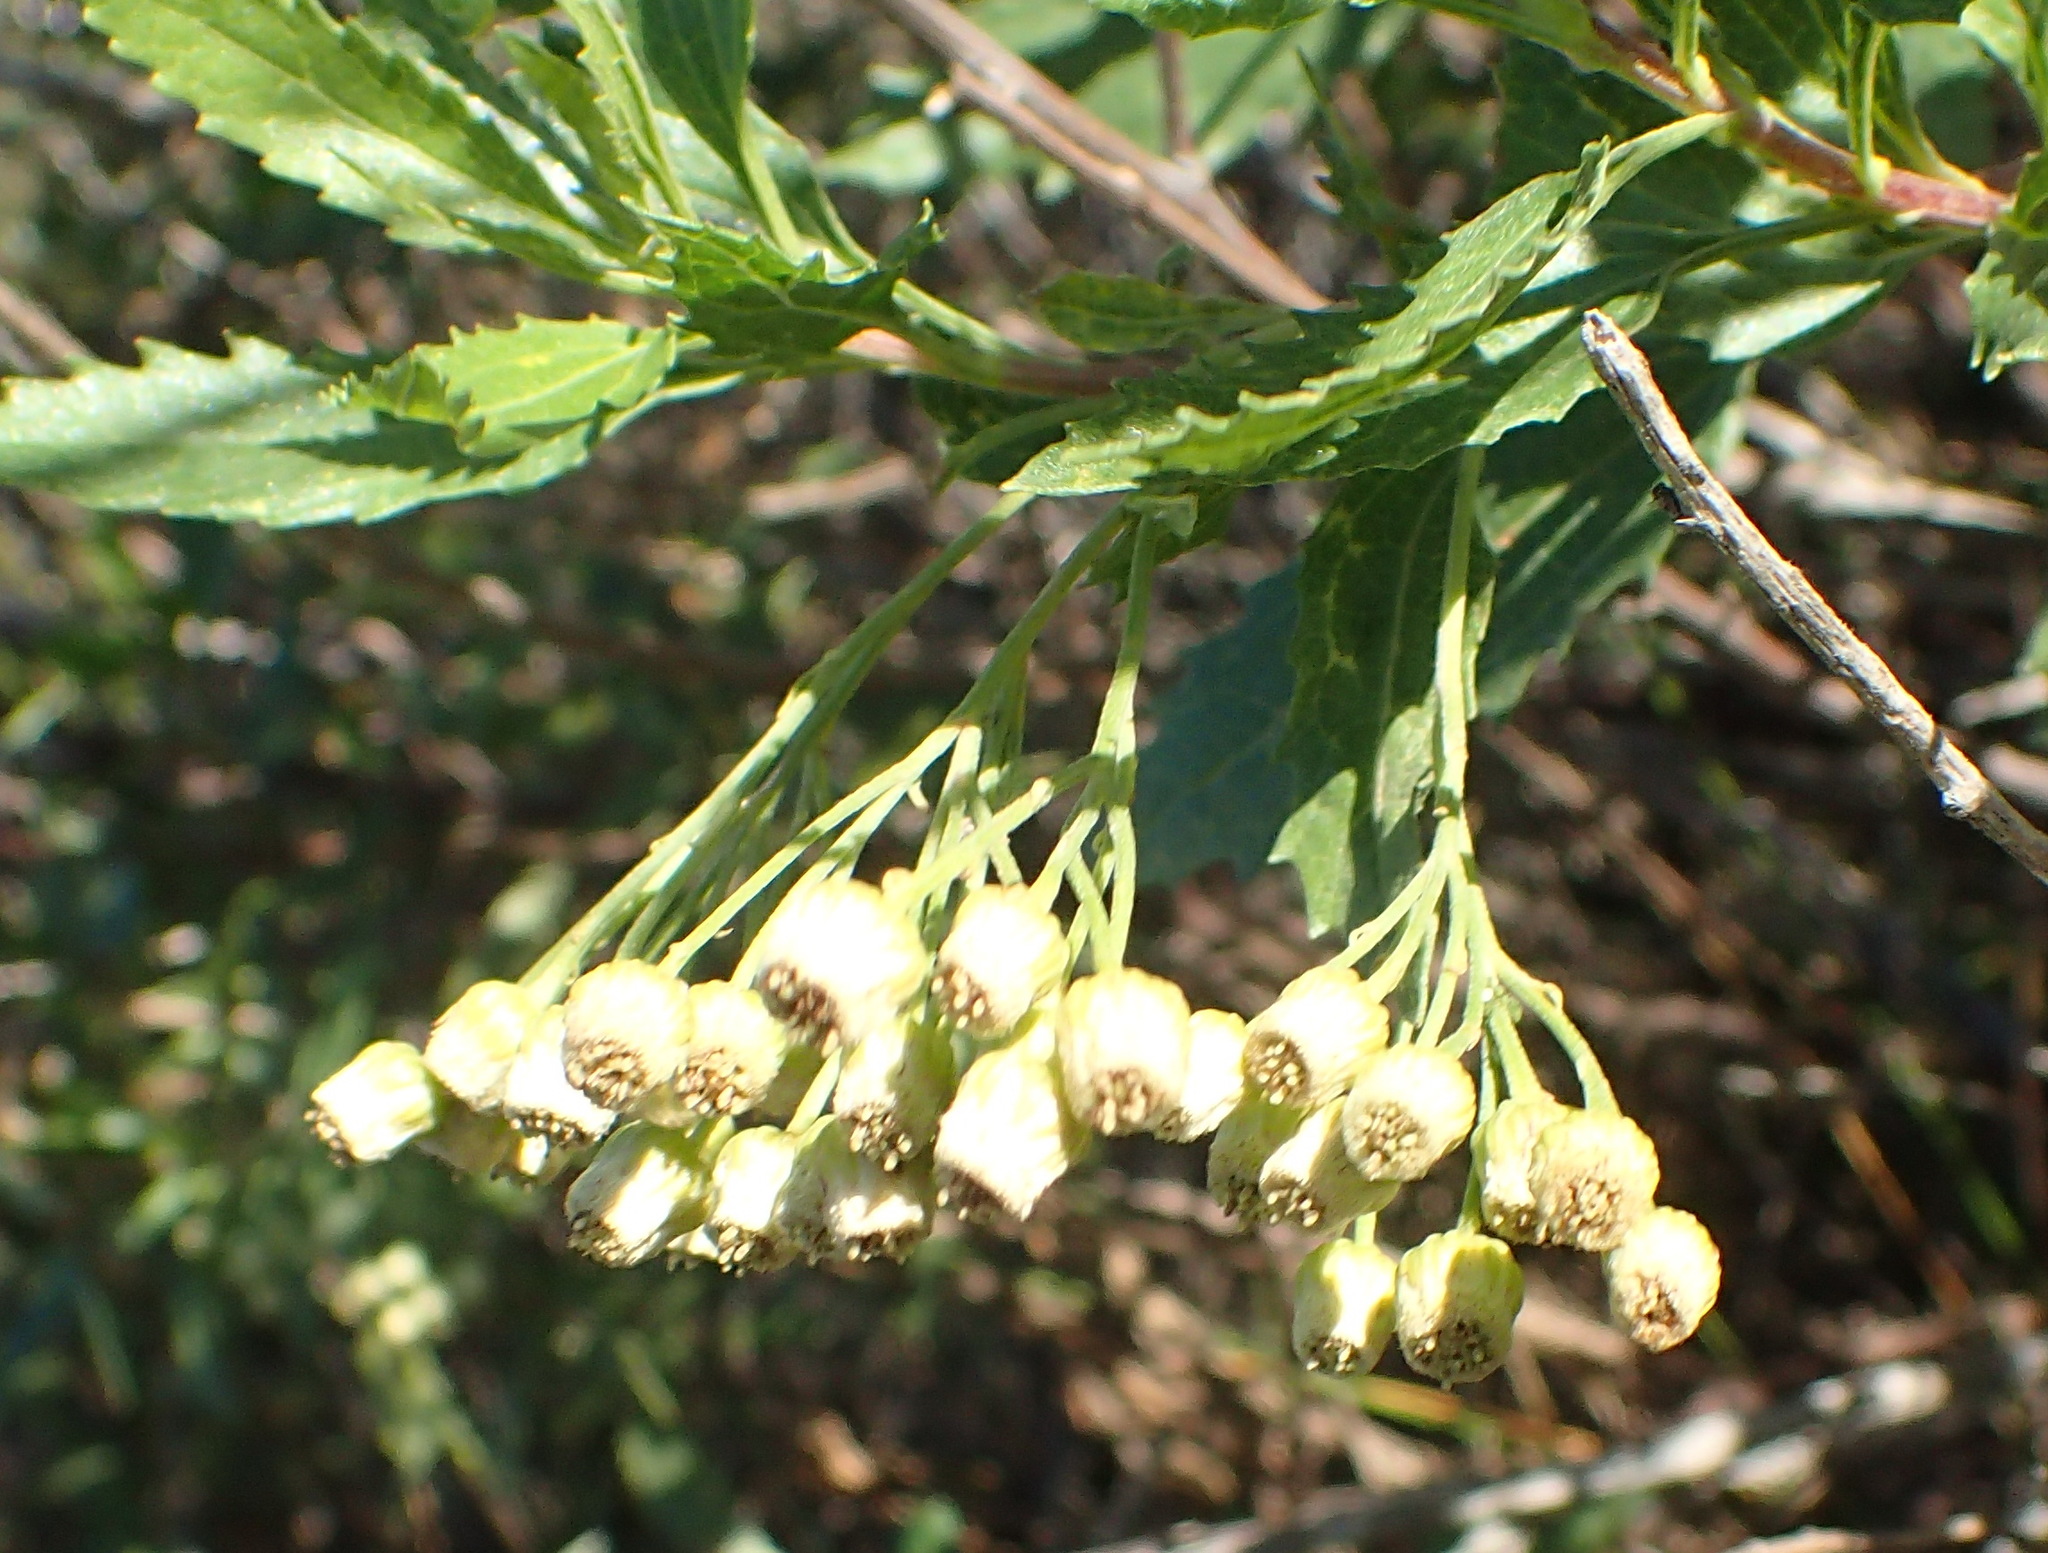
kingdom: Plantae
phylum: Tracheophyta
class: Magnoliopsida
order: Asterales
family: Asteraceae
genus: Nidorella
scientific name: Nidorella ivifolia
